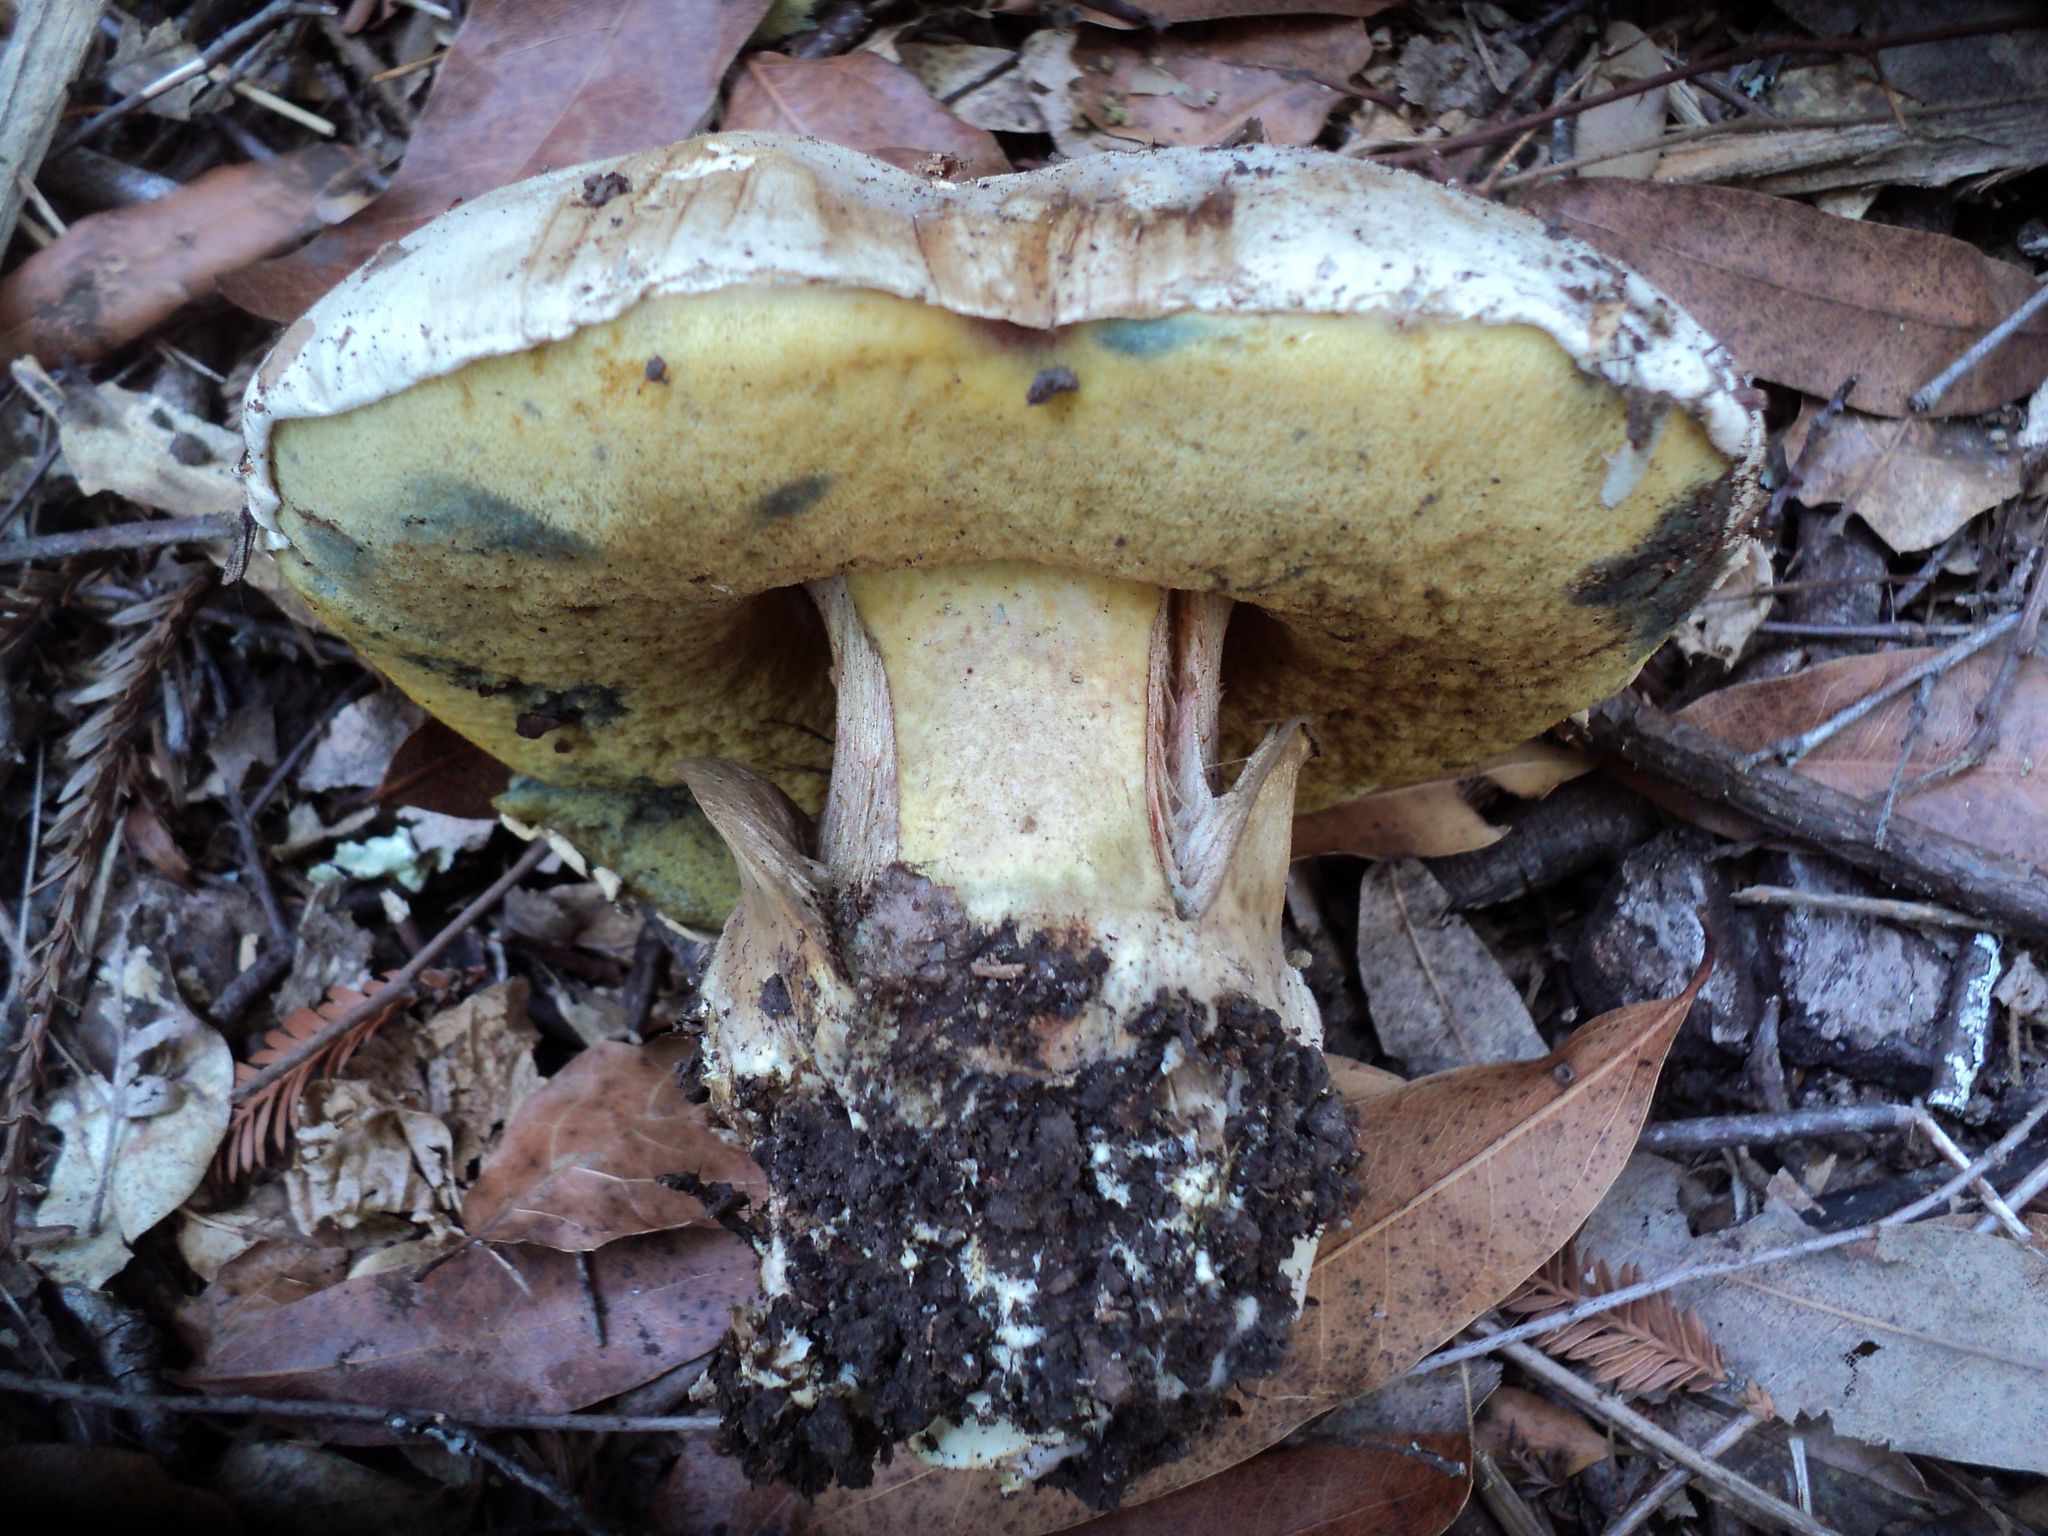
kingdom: Fungi
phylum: Basidiomycota
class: Agaricomycetes
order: Boletales
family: Boletaceae
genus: Caloboletus
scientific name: Caloboletus marshii
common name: Ben's bitter bolete
